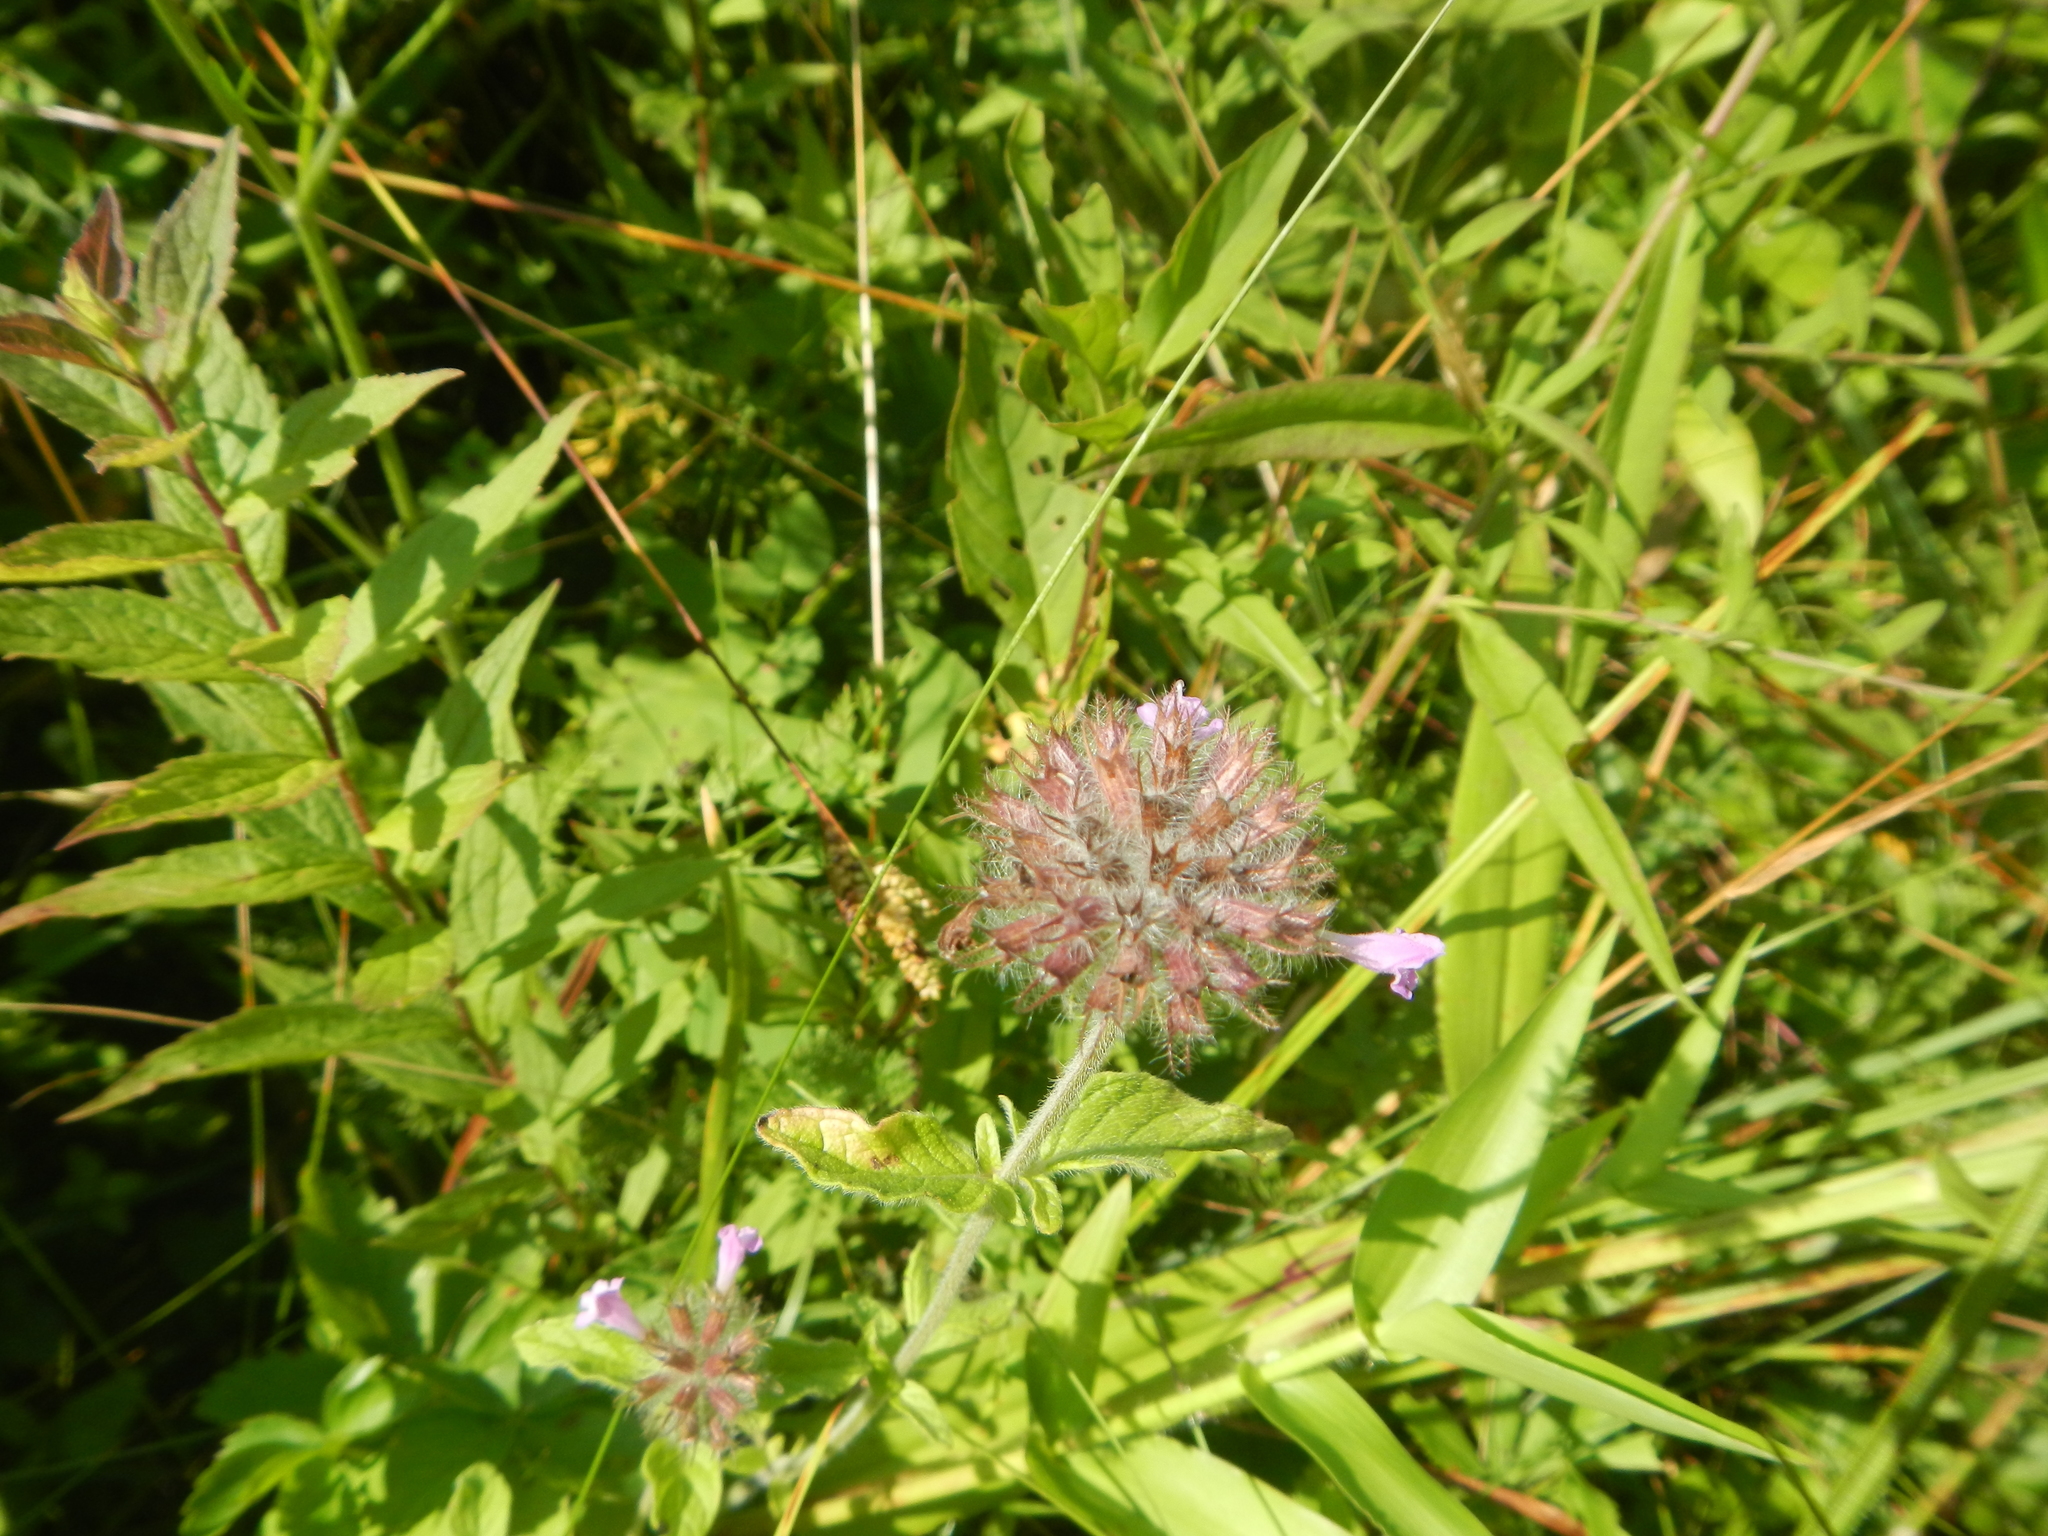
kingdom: Plantae
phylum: Tracheophyta
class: Magnoliopsida
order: Lamiales
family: Lamiaceae
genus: Clinopodium
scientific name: Clinopodium vulgare
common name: Wild basil
